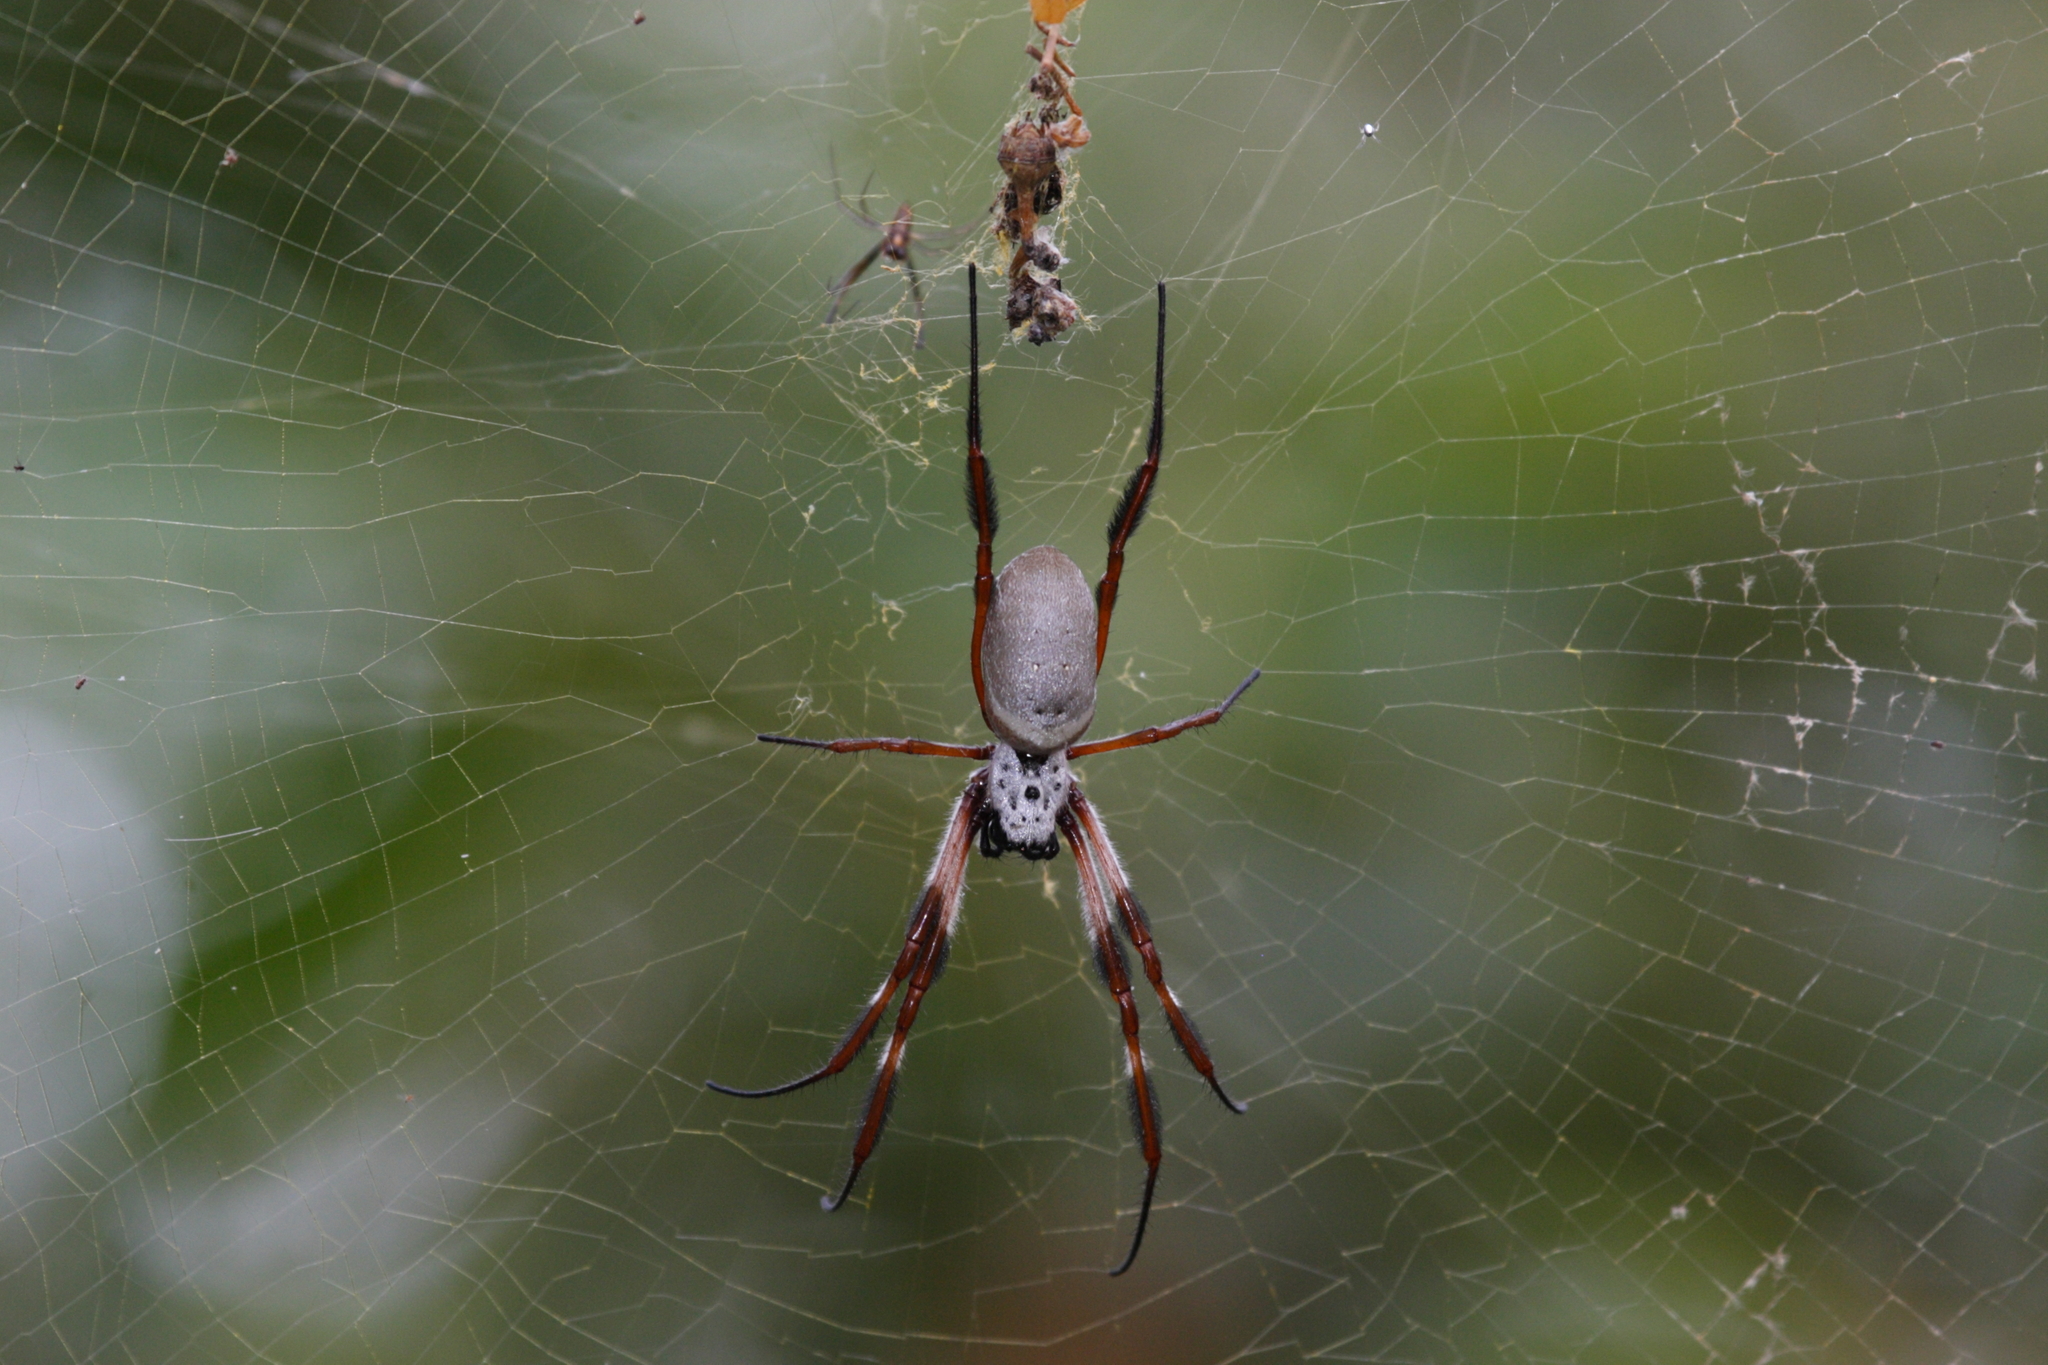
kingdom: Animalia
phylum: Arthropoda
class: Arachnida
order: Araneae
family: Araneidae
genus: Trichonephila
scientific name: Trichonephila edulis
